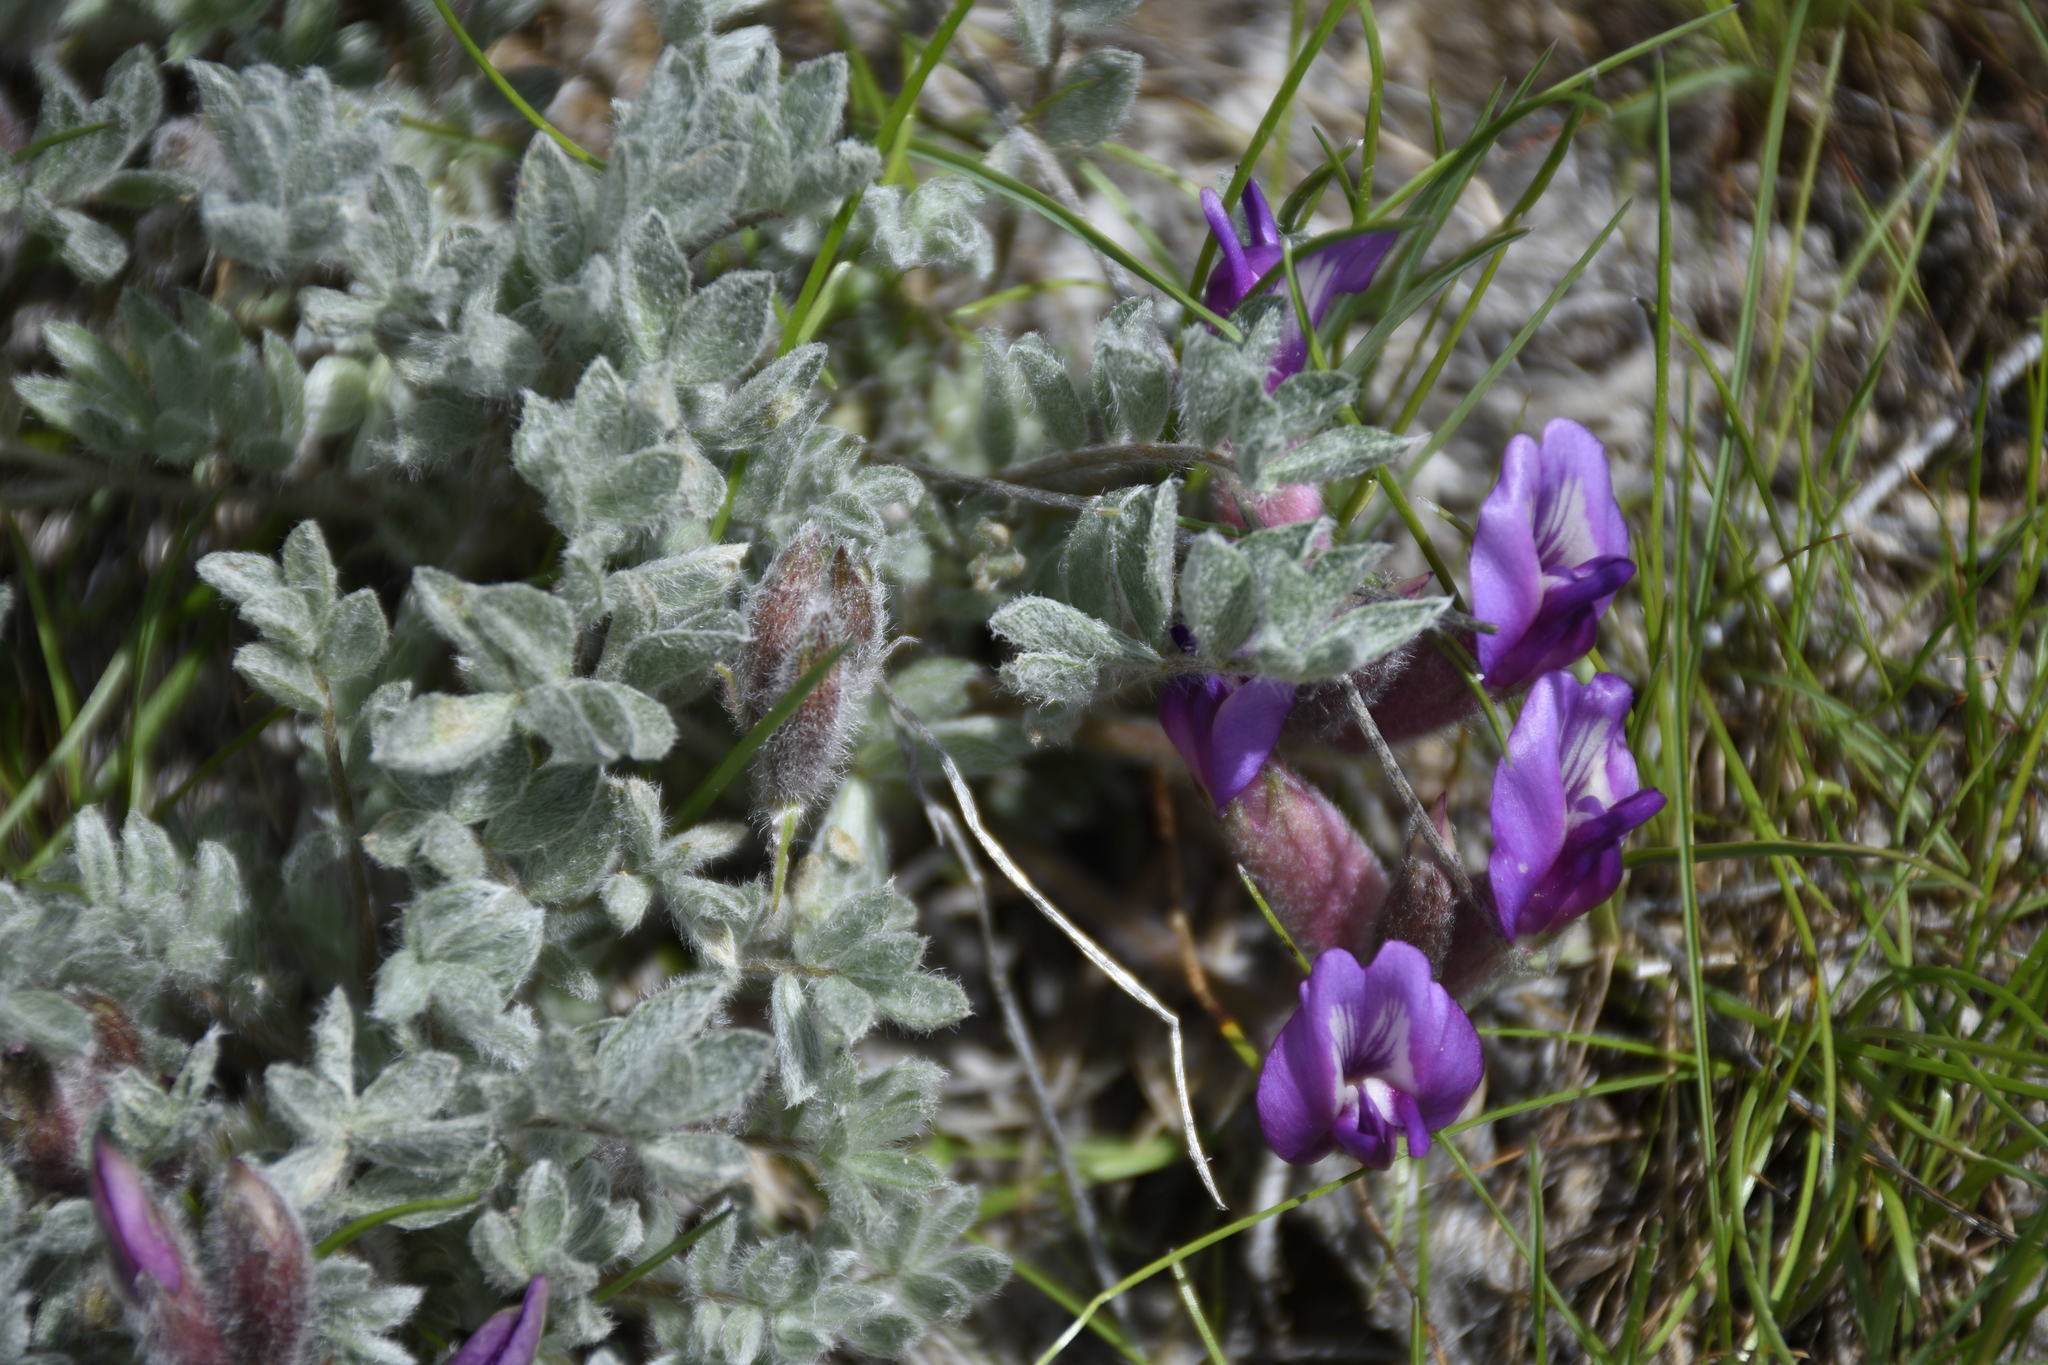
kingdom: Plantae
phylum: Tracheophyta
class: Magnoliopsida
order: Fabales
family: Fabaceae
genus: Astragalus
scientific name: Astragalus purshii
